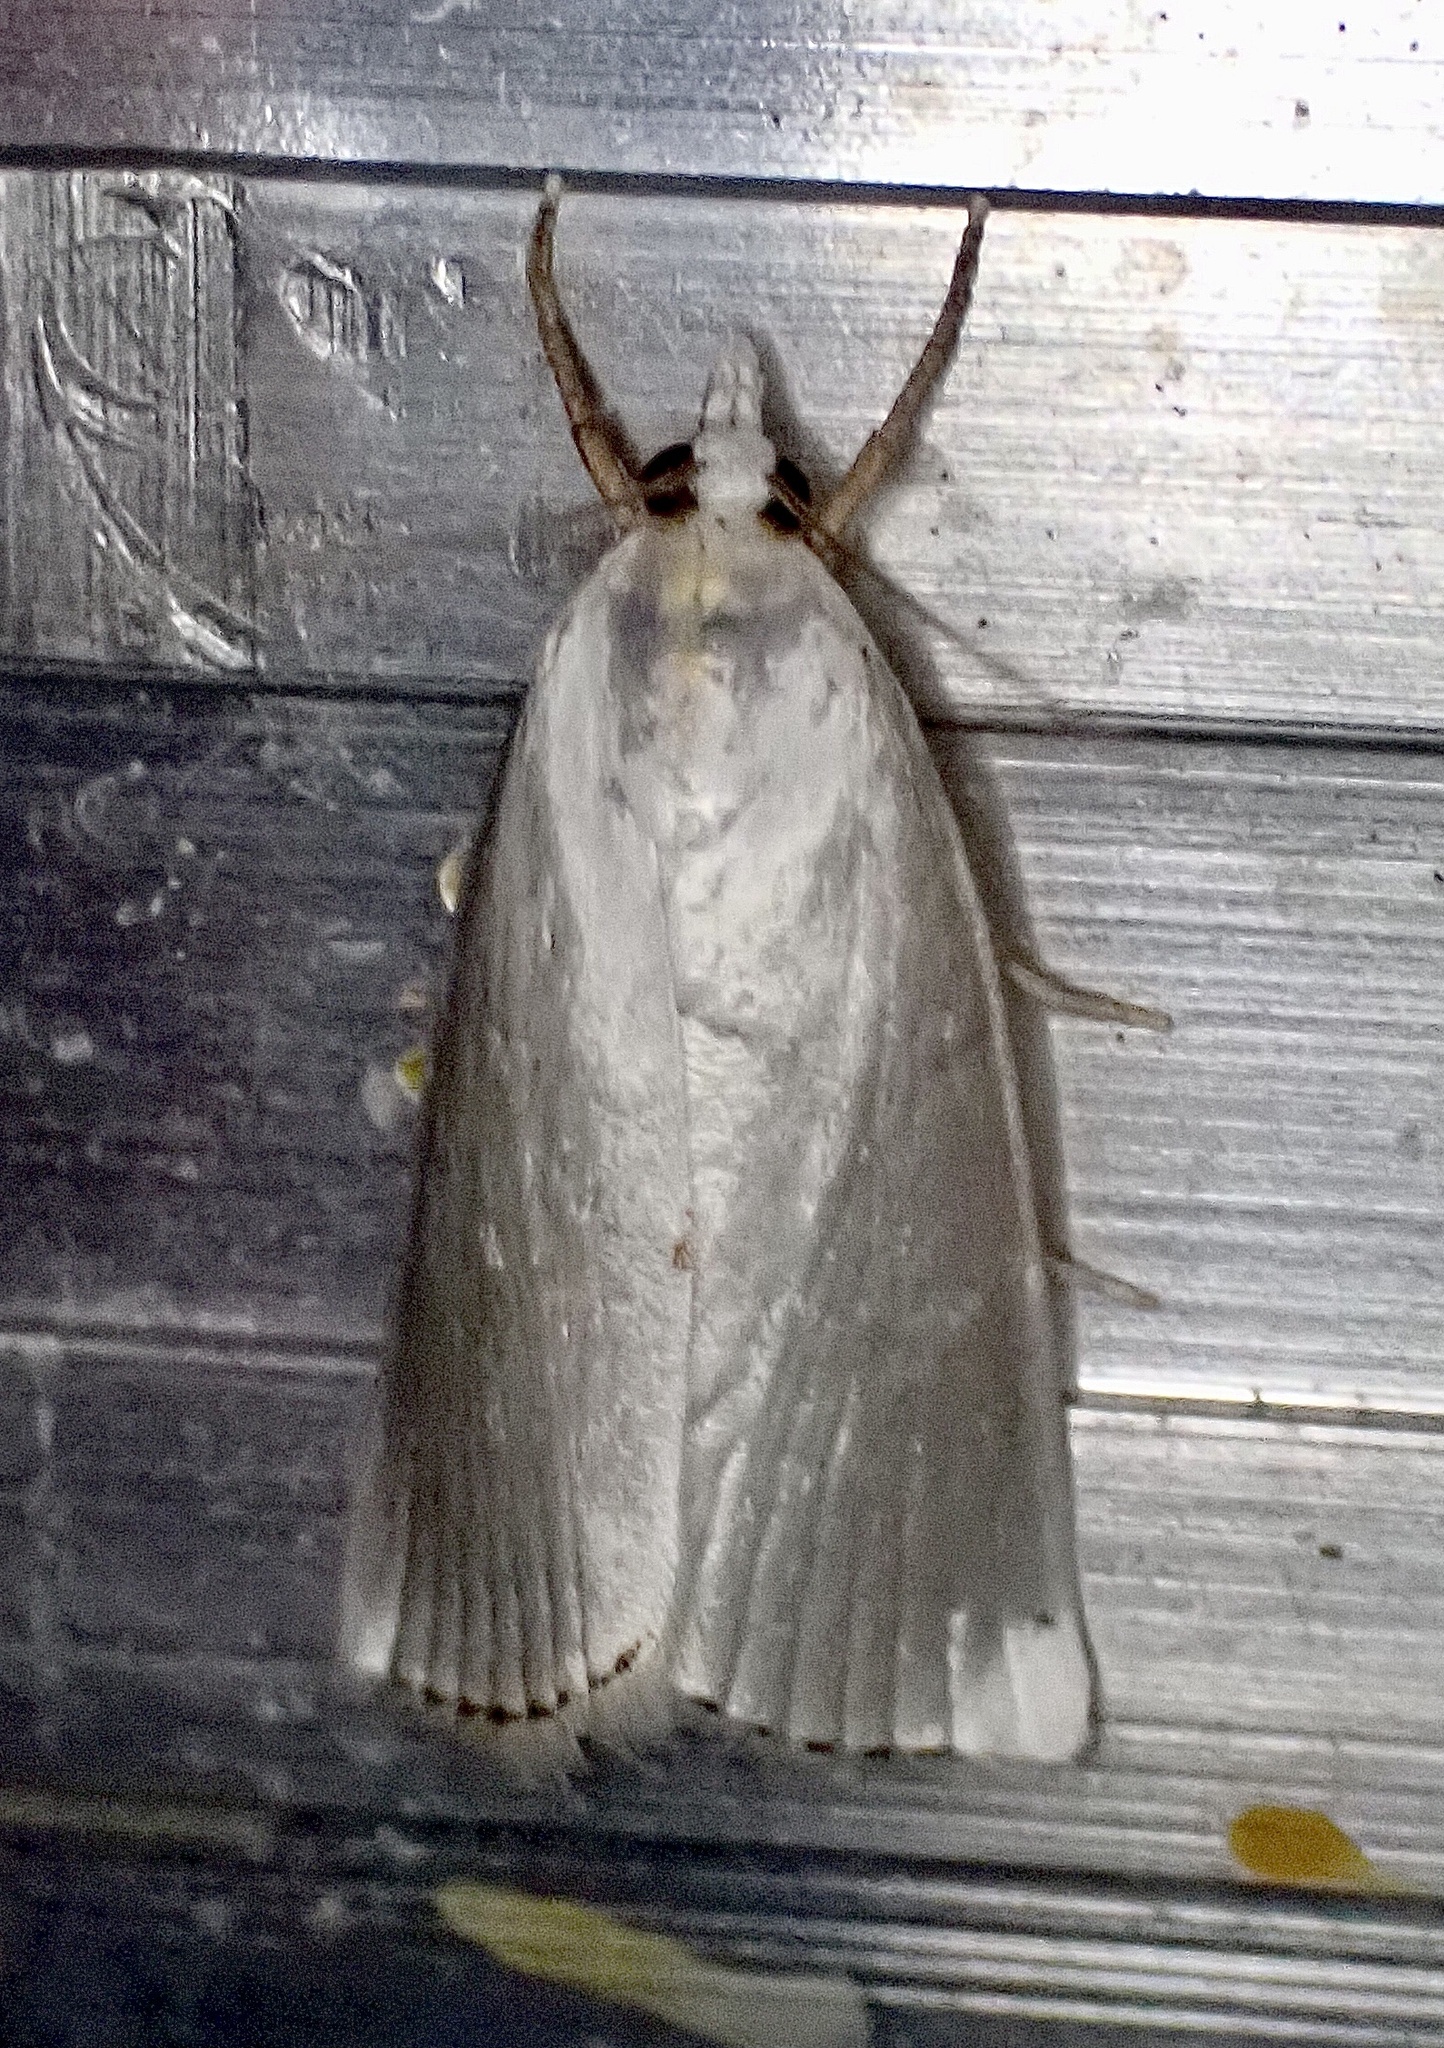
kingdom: Animalia
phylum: Arthropoda
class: Insecta
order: Lepidoptera
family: Crambidae
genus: Argyria
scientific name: Argyria nivalis
